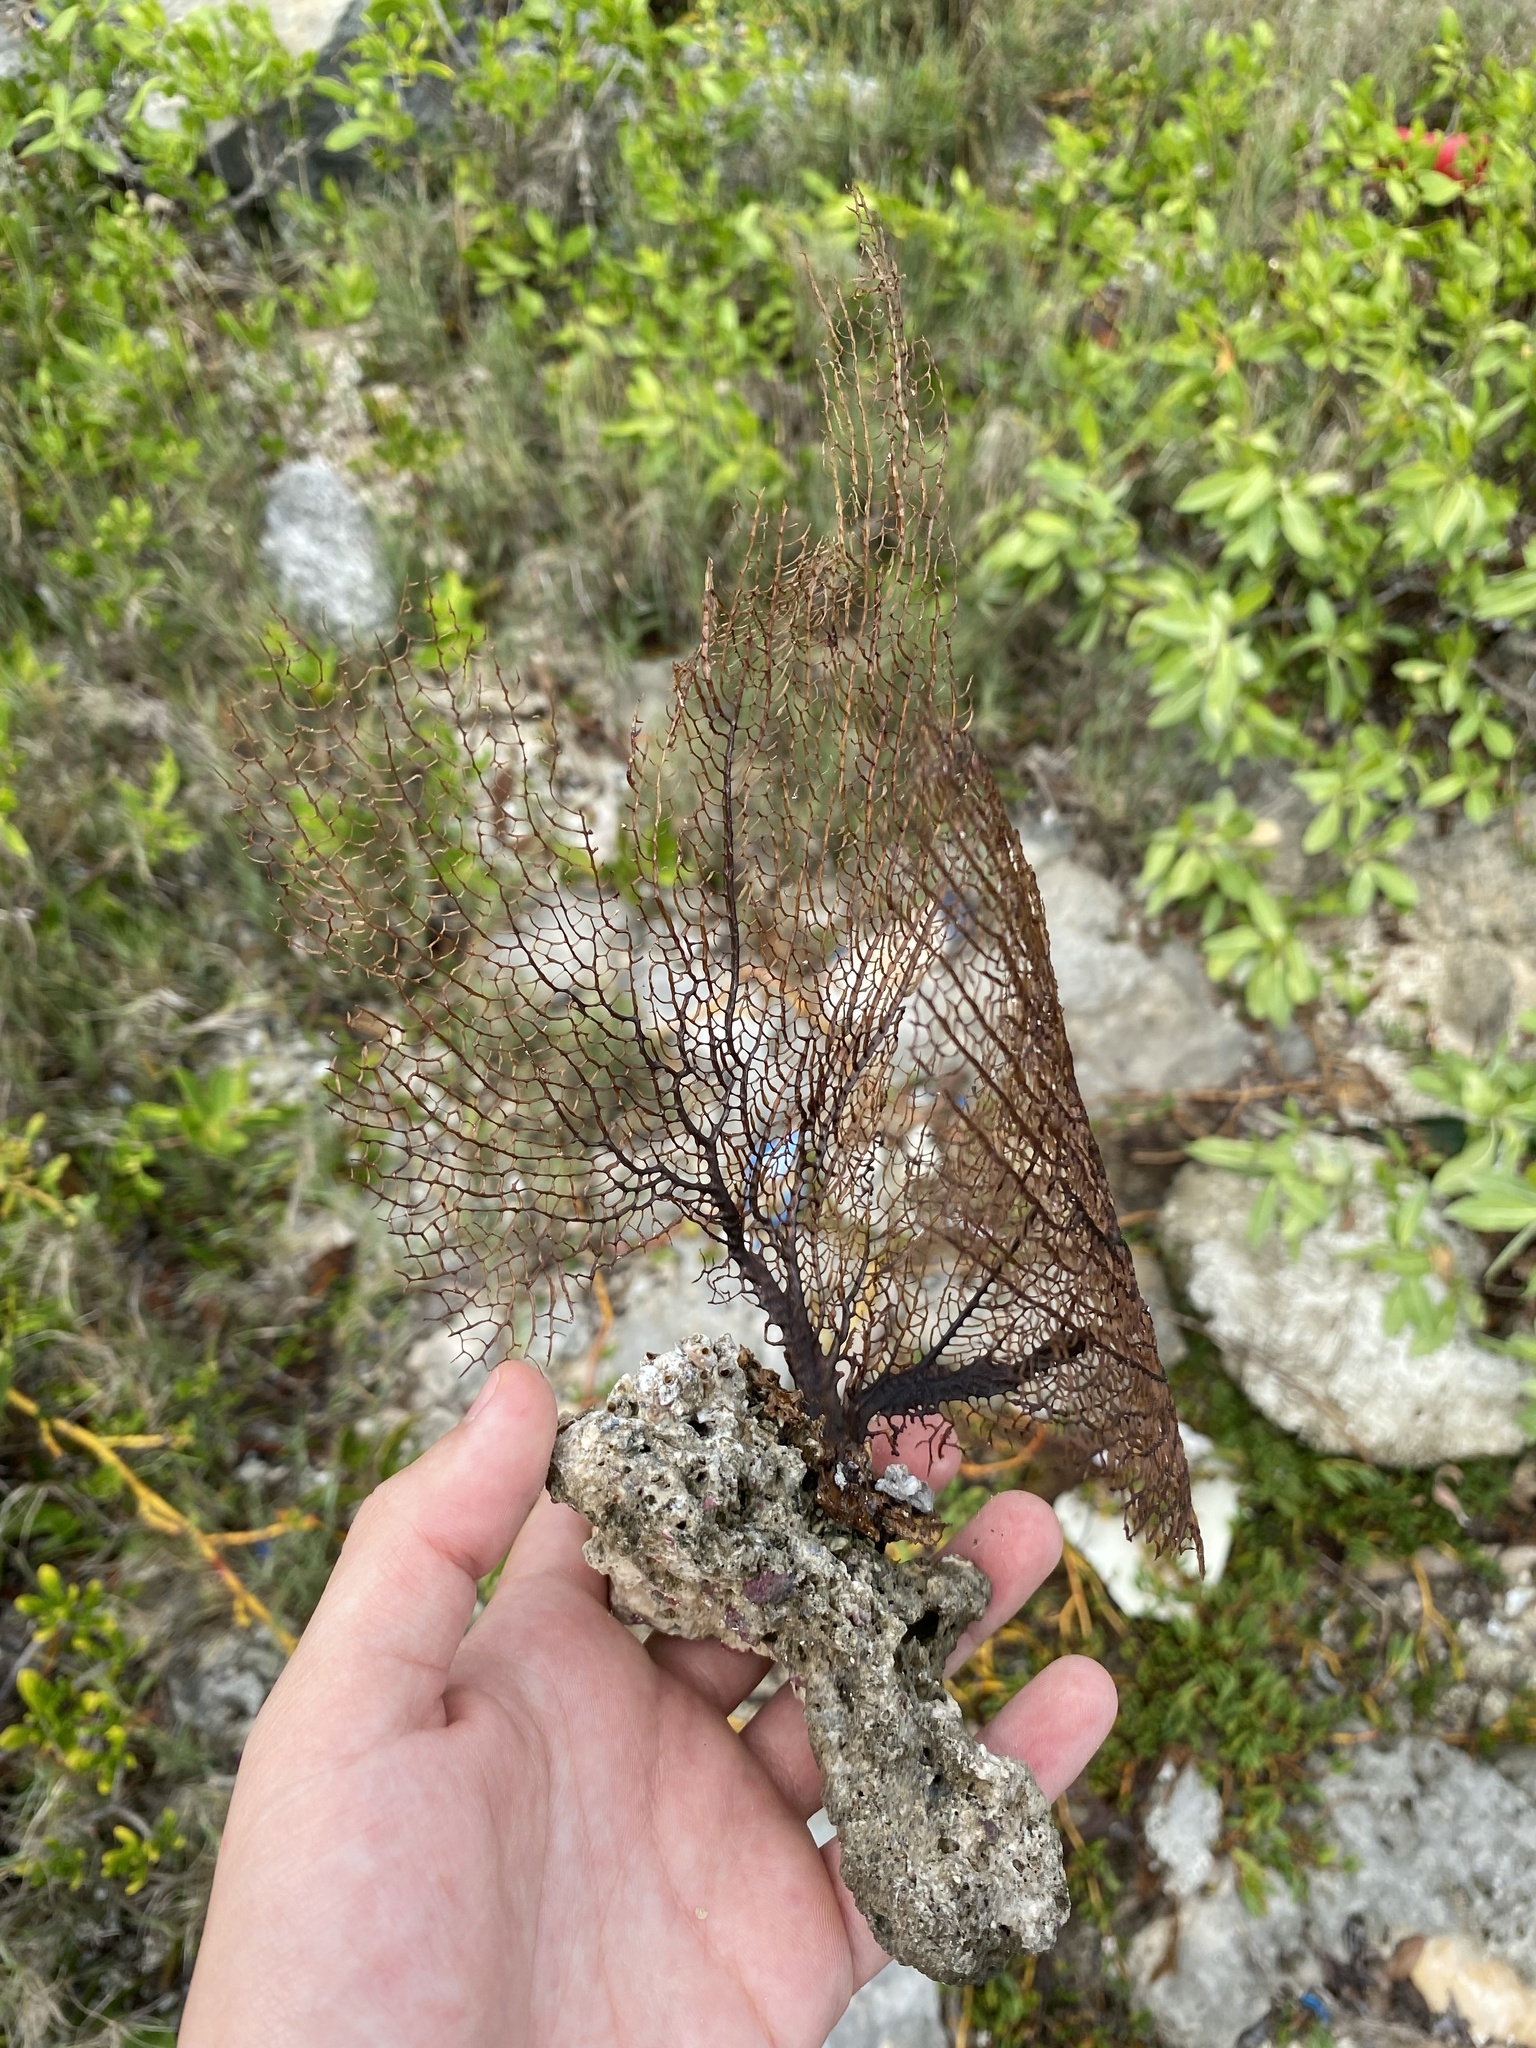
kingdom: Animalia
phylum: Cnidaria
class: Anthozoa
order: Malacalcyonacea
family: Gorgoniidae
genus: Gorgonia
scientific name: Gorgonia ventalina
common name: Common sea fan
